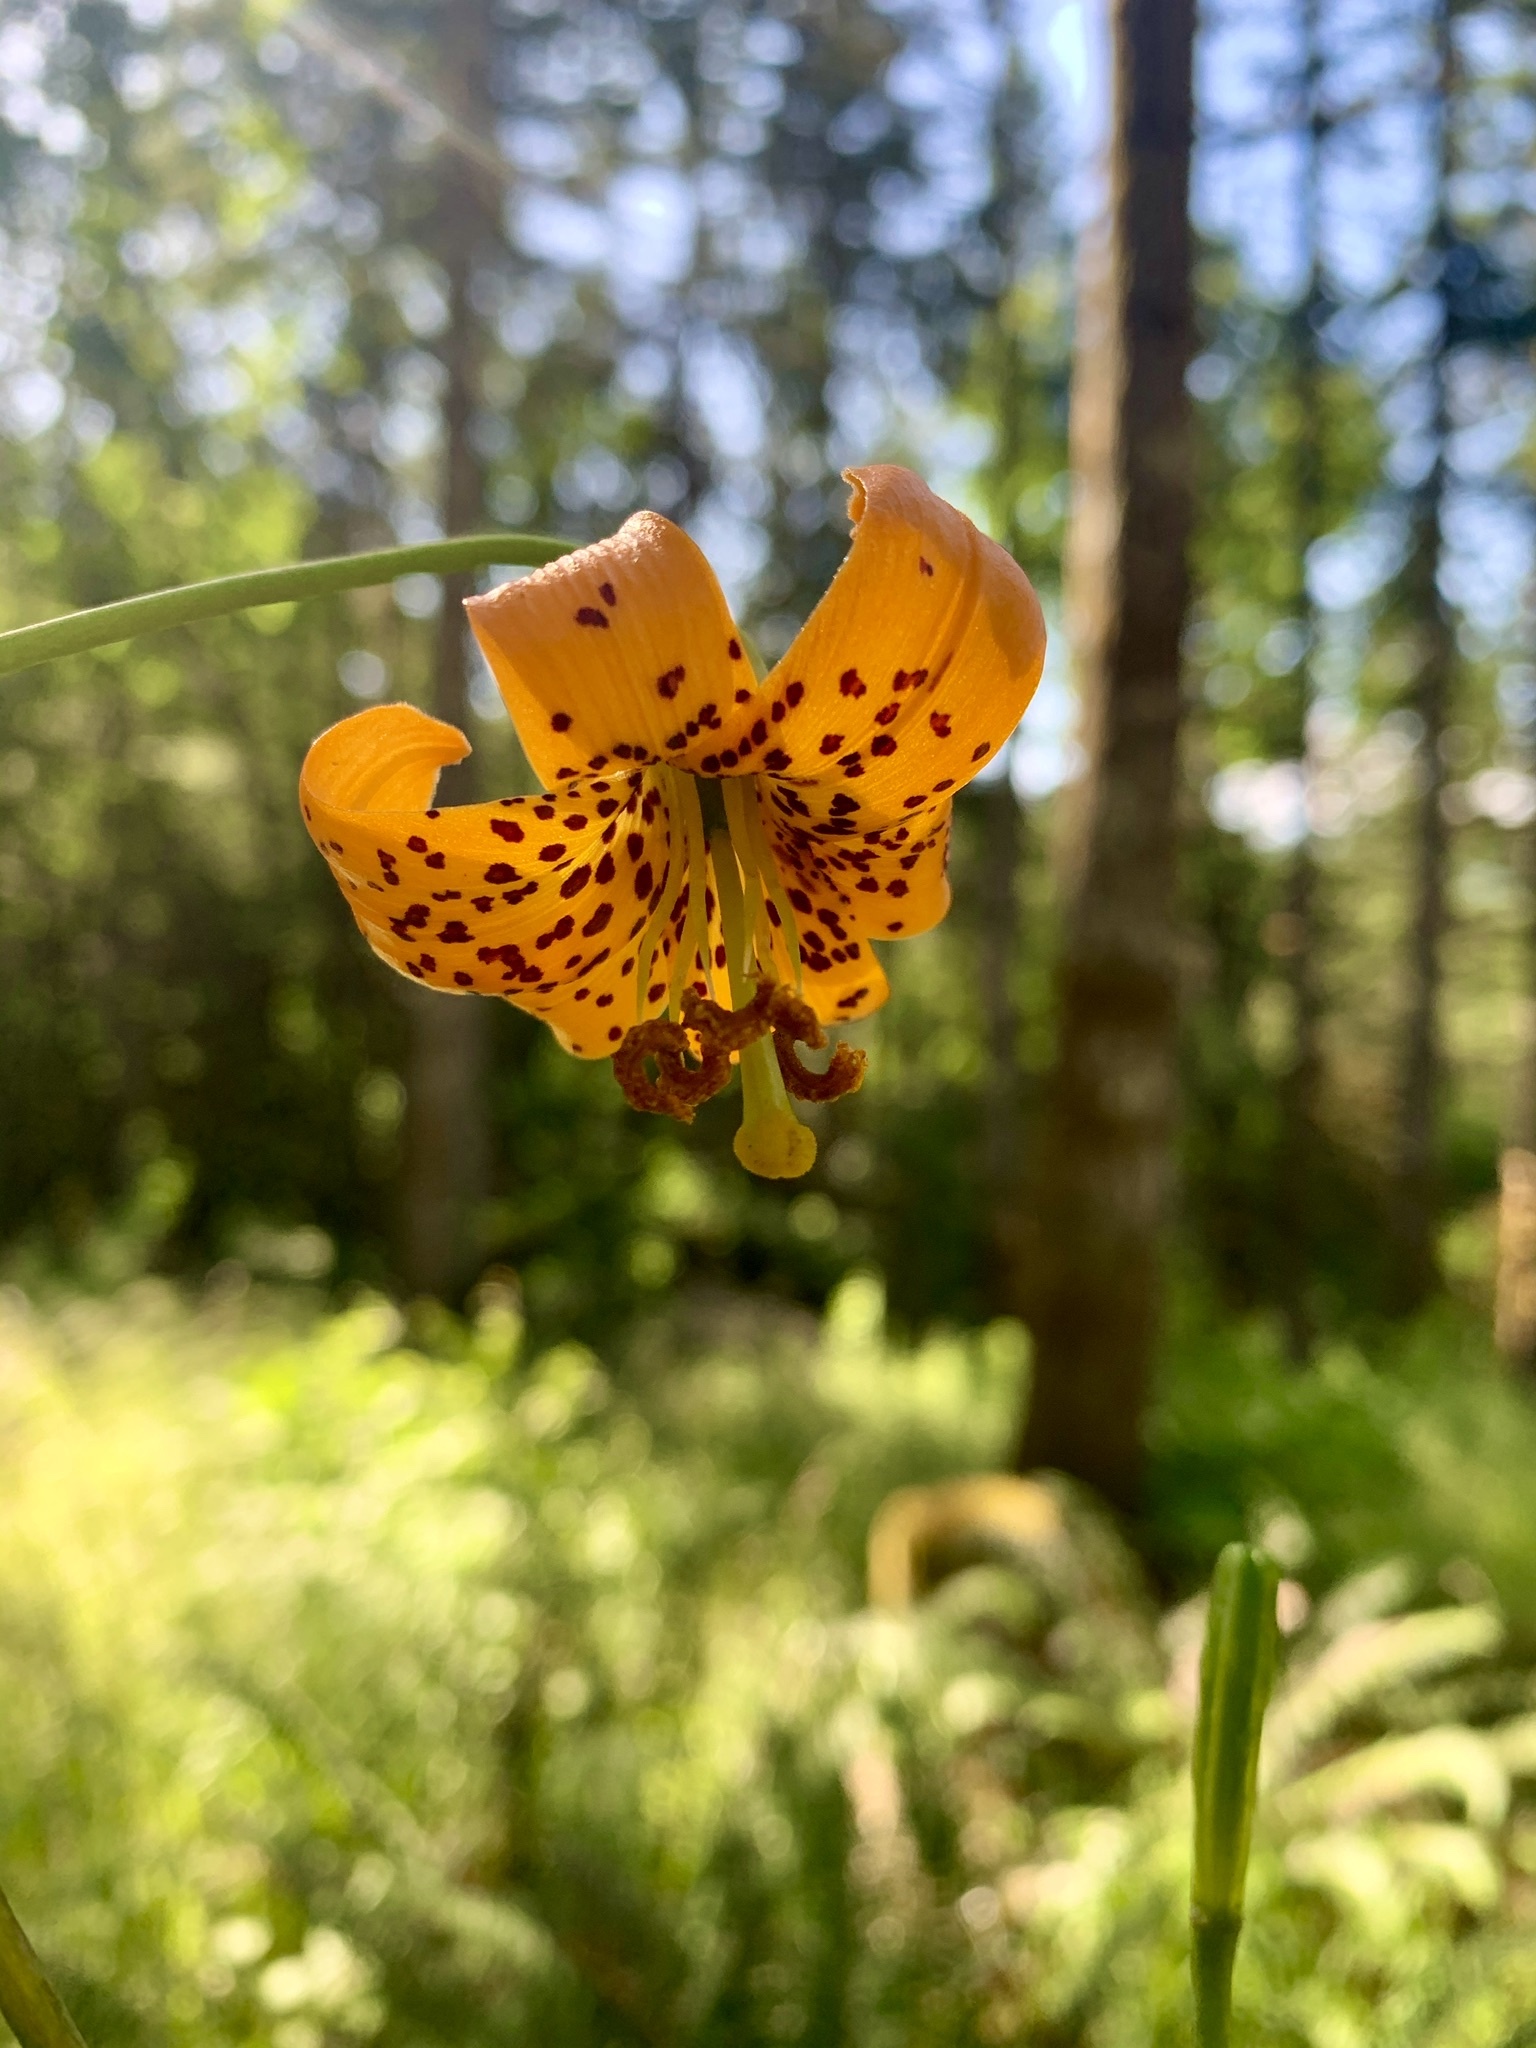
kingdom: Plantae
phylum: Tracheophyta
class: Liliopsida
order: Liliales
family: Liliaceae
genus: Lilium
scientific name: Lilium columbianum
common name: Columbia lily
